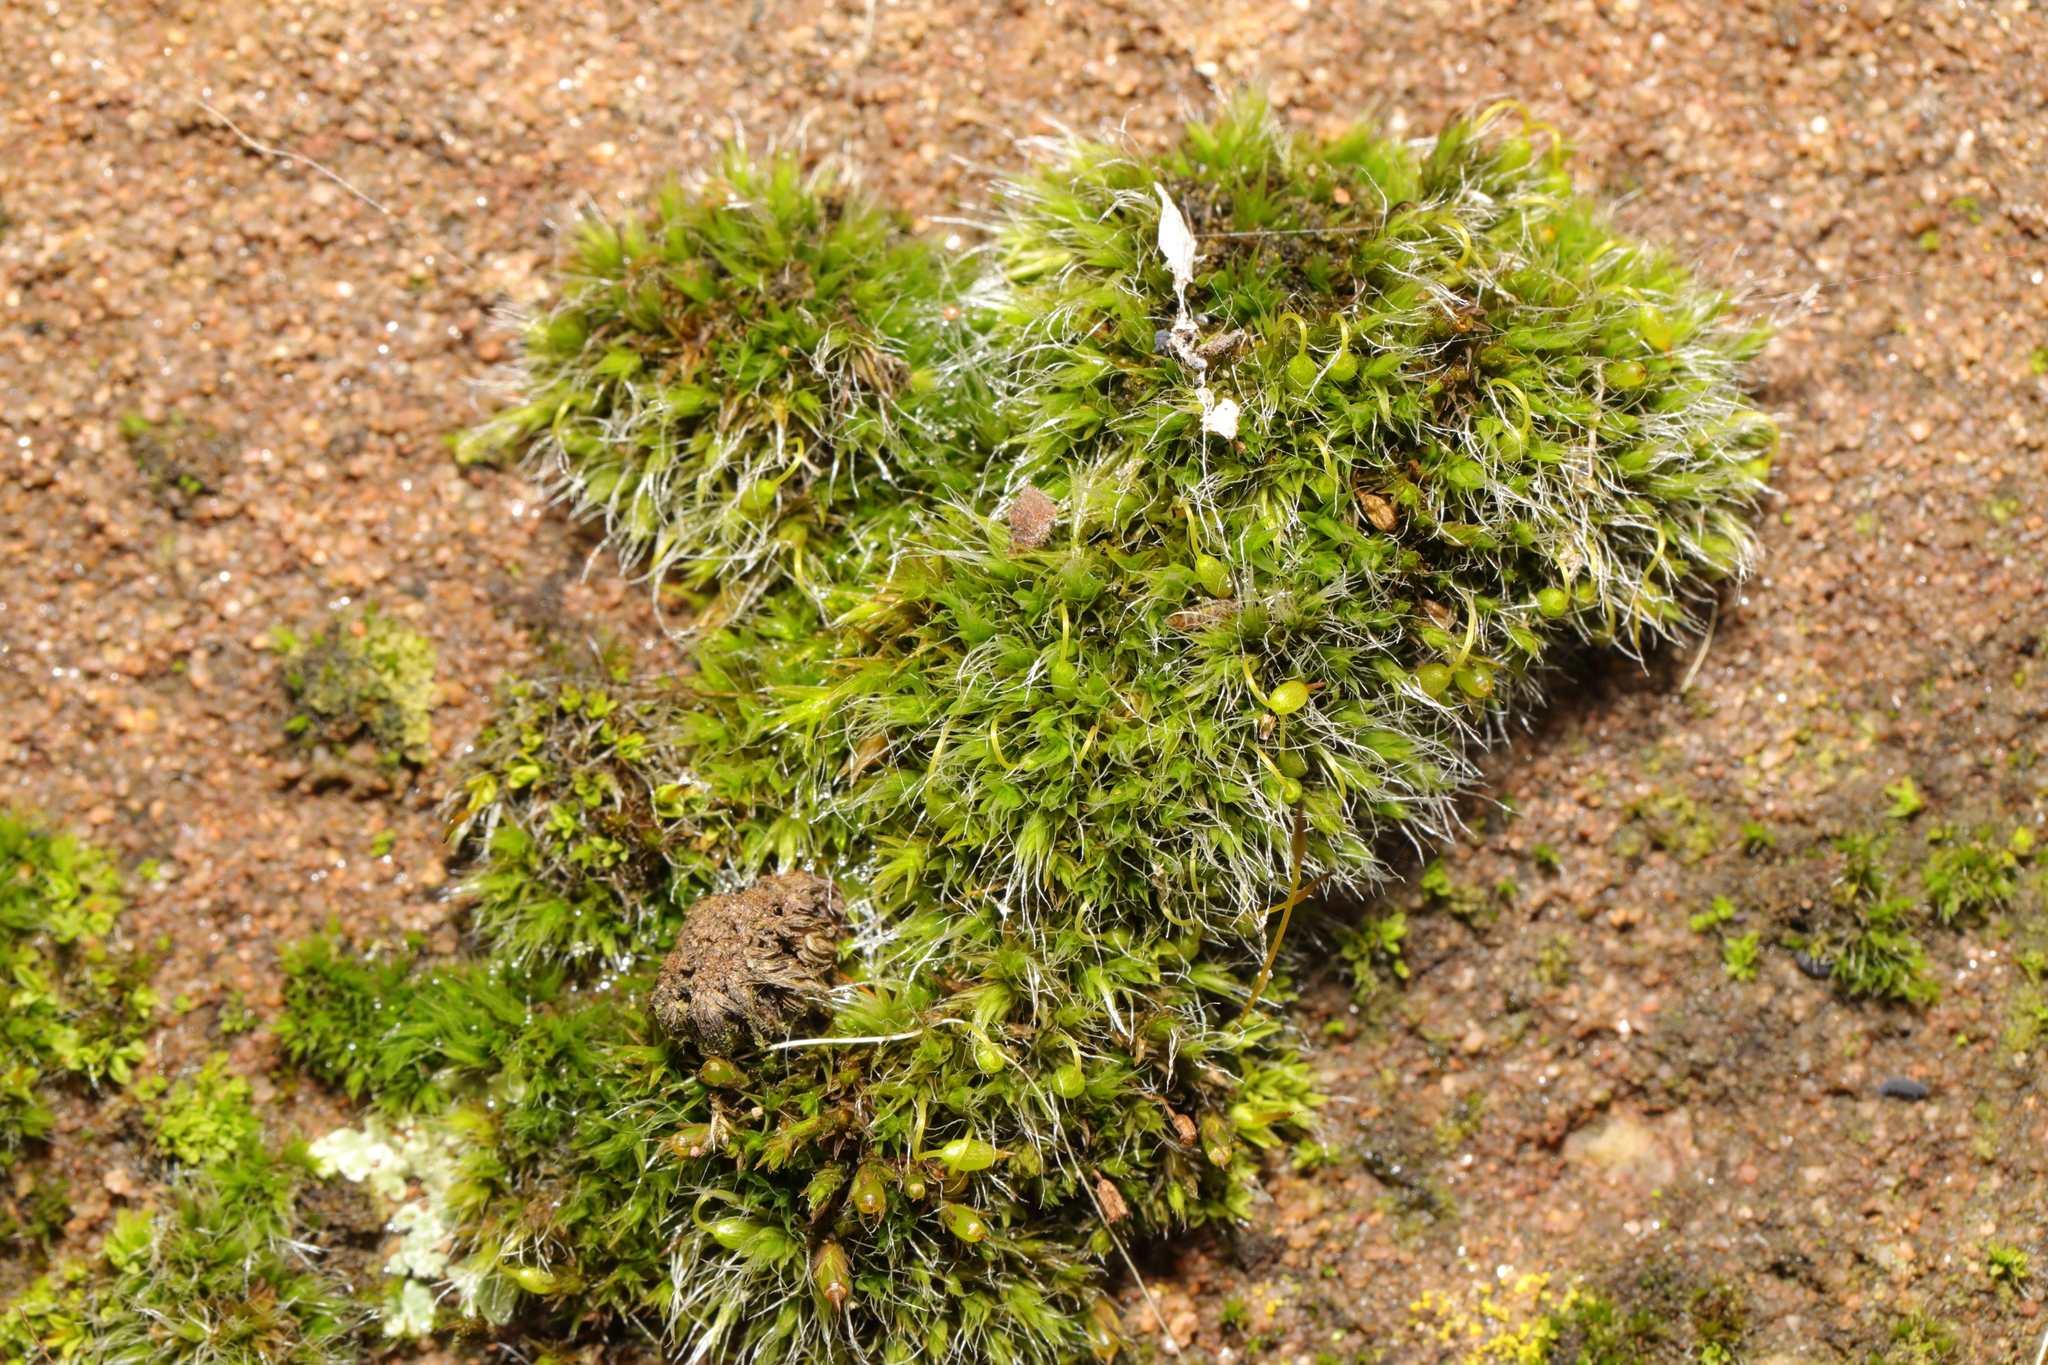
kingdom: Plantae
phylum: Bryophyta
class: Bryopsida
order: Grimmiales
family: Grimmiaceae
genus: Grimmia
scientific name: Grimmia pulvinata
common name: Grey-cushioned grimmia
